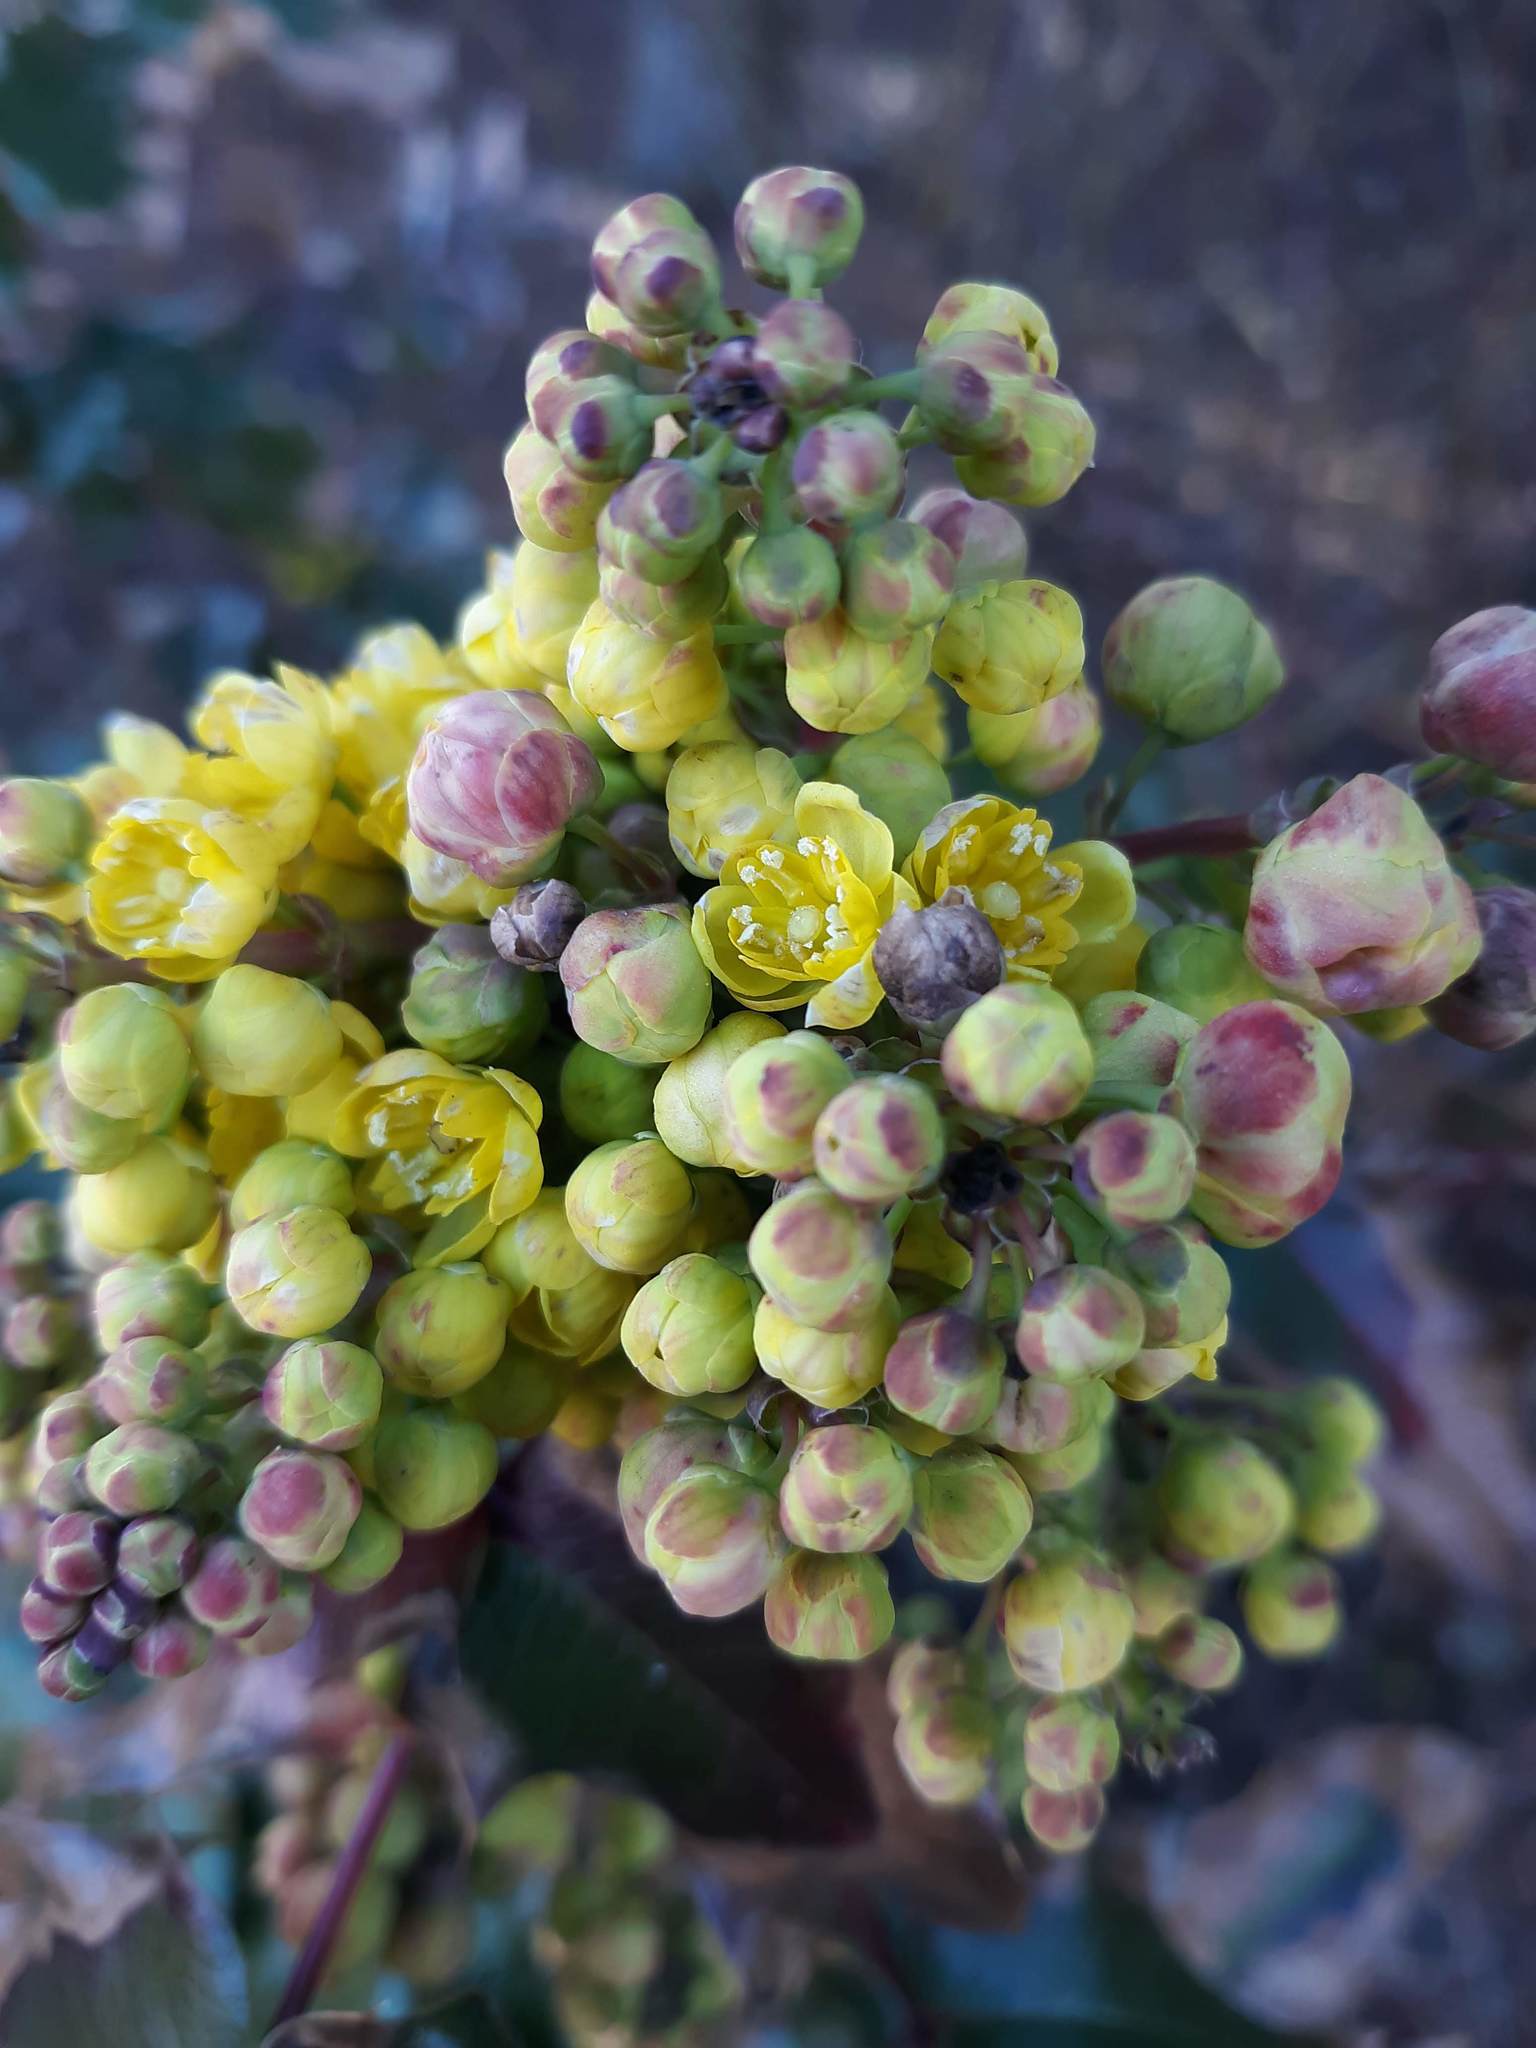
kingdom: Plantae
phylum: Tracheophyta
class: Magnoliopsida
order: Ranunculales
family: Berberidaceae
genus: Mahonia
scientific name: Mahonia aquifolium
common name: Oregon-grape
